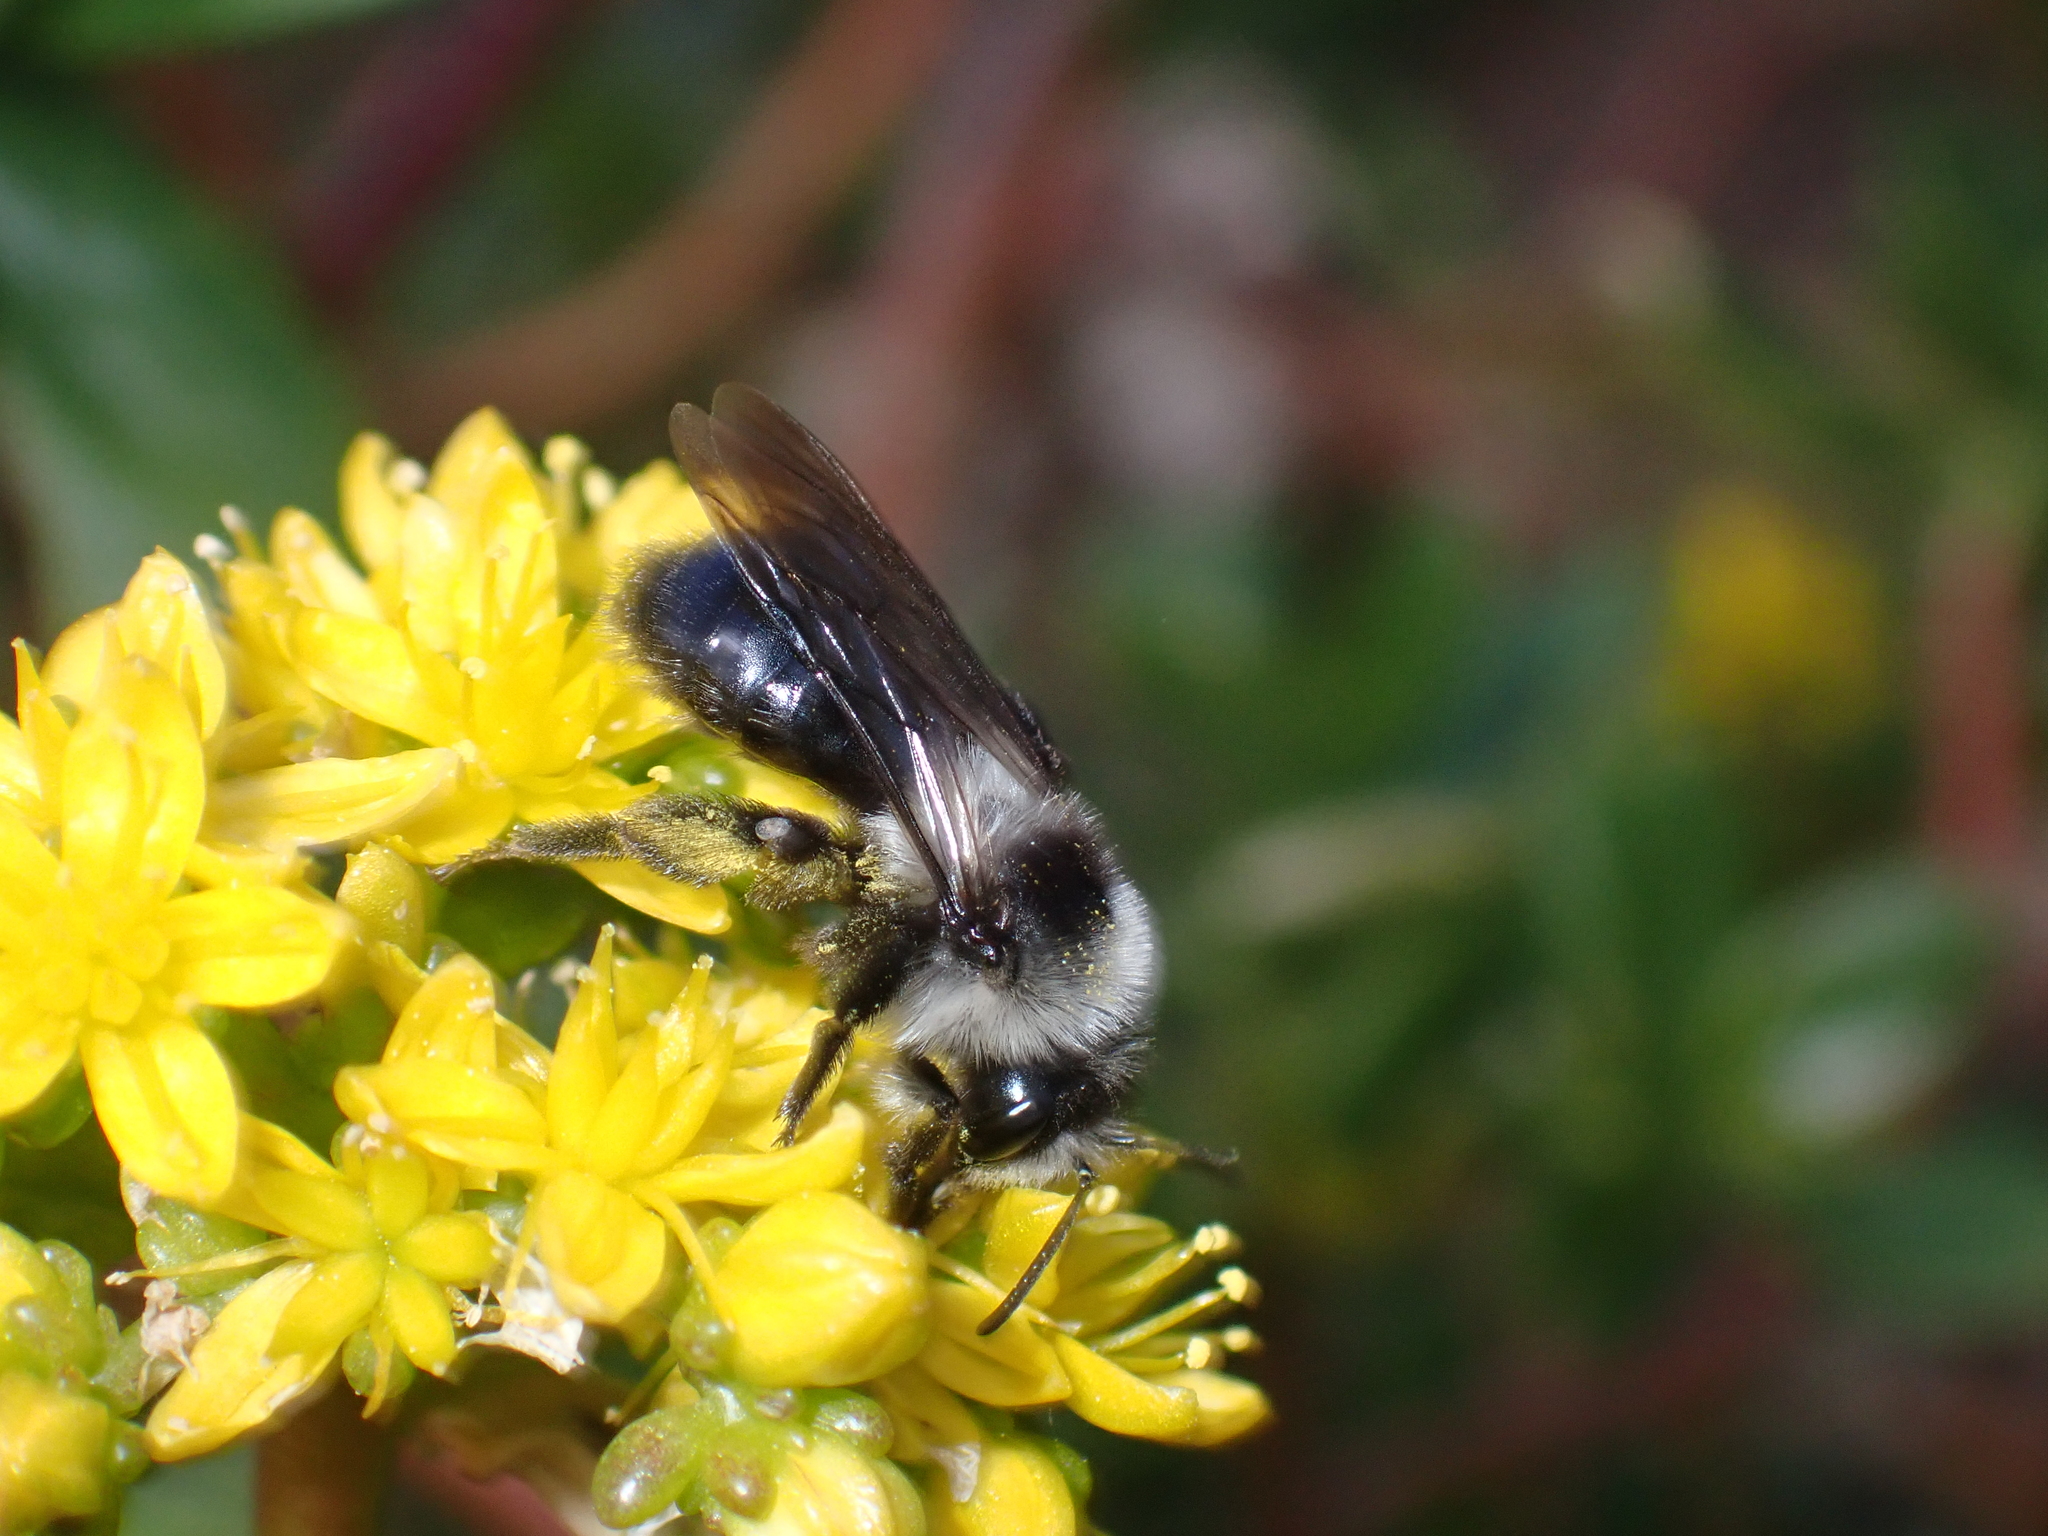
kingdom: Animalia
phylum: Arthropoda
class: Insecta
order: Hymenoptera
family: Andrenidae
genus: Andrena
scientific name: Andrena cineraria
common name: Ashy mining bee
